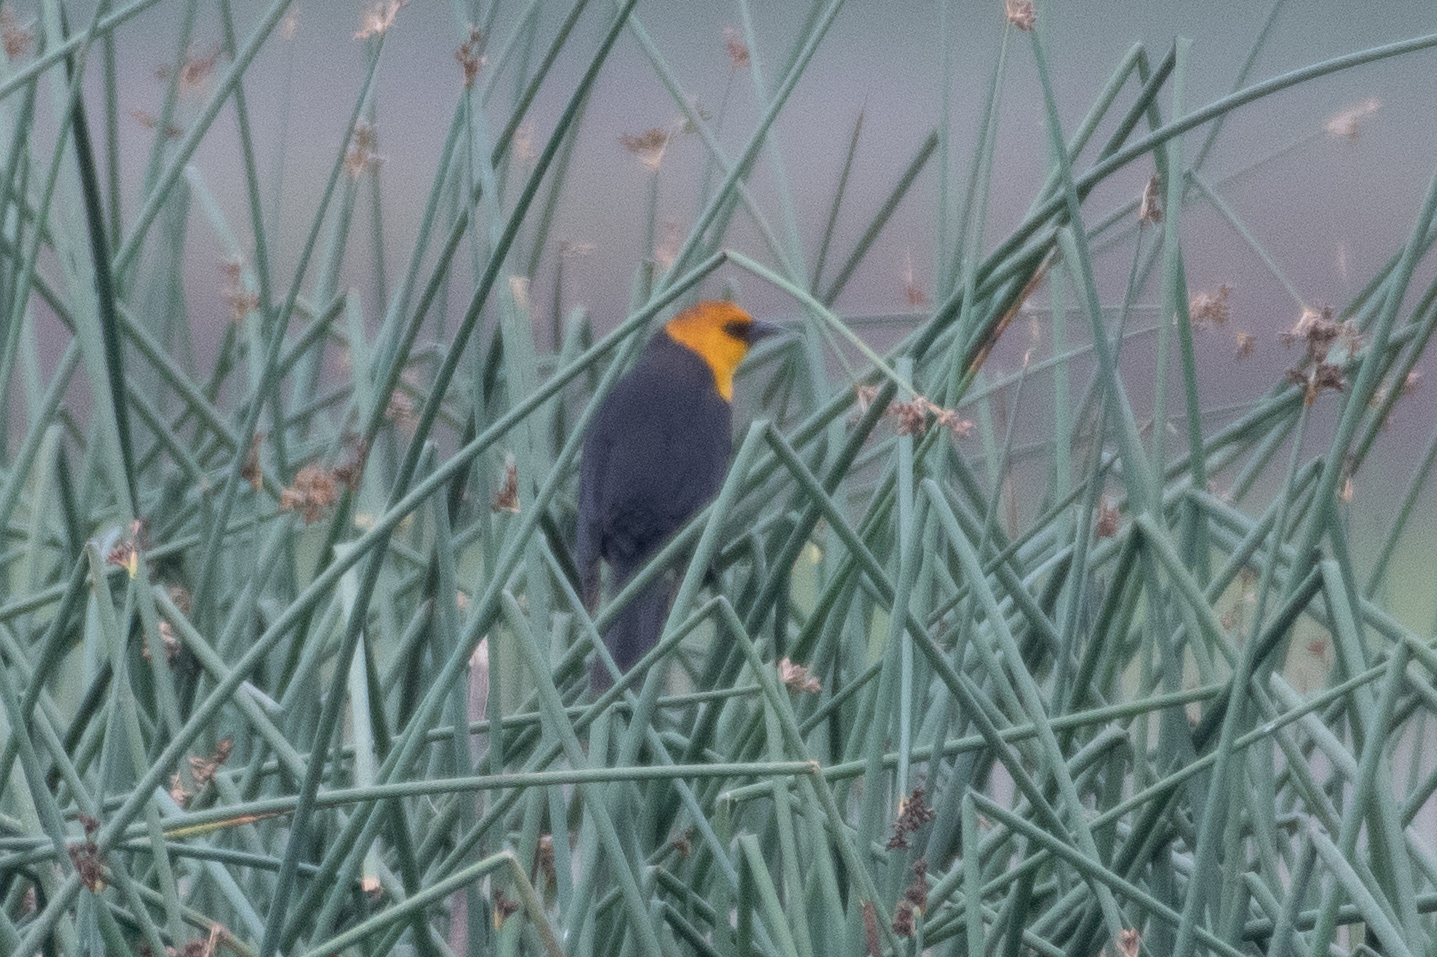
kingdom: Animalia
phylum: Chordata
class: Aves
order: Passeriformes
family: Icteridae
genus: Xanthocephalus
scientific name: Xanthocephalus xanthocephalus
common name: Yellow-headed blackbird
